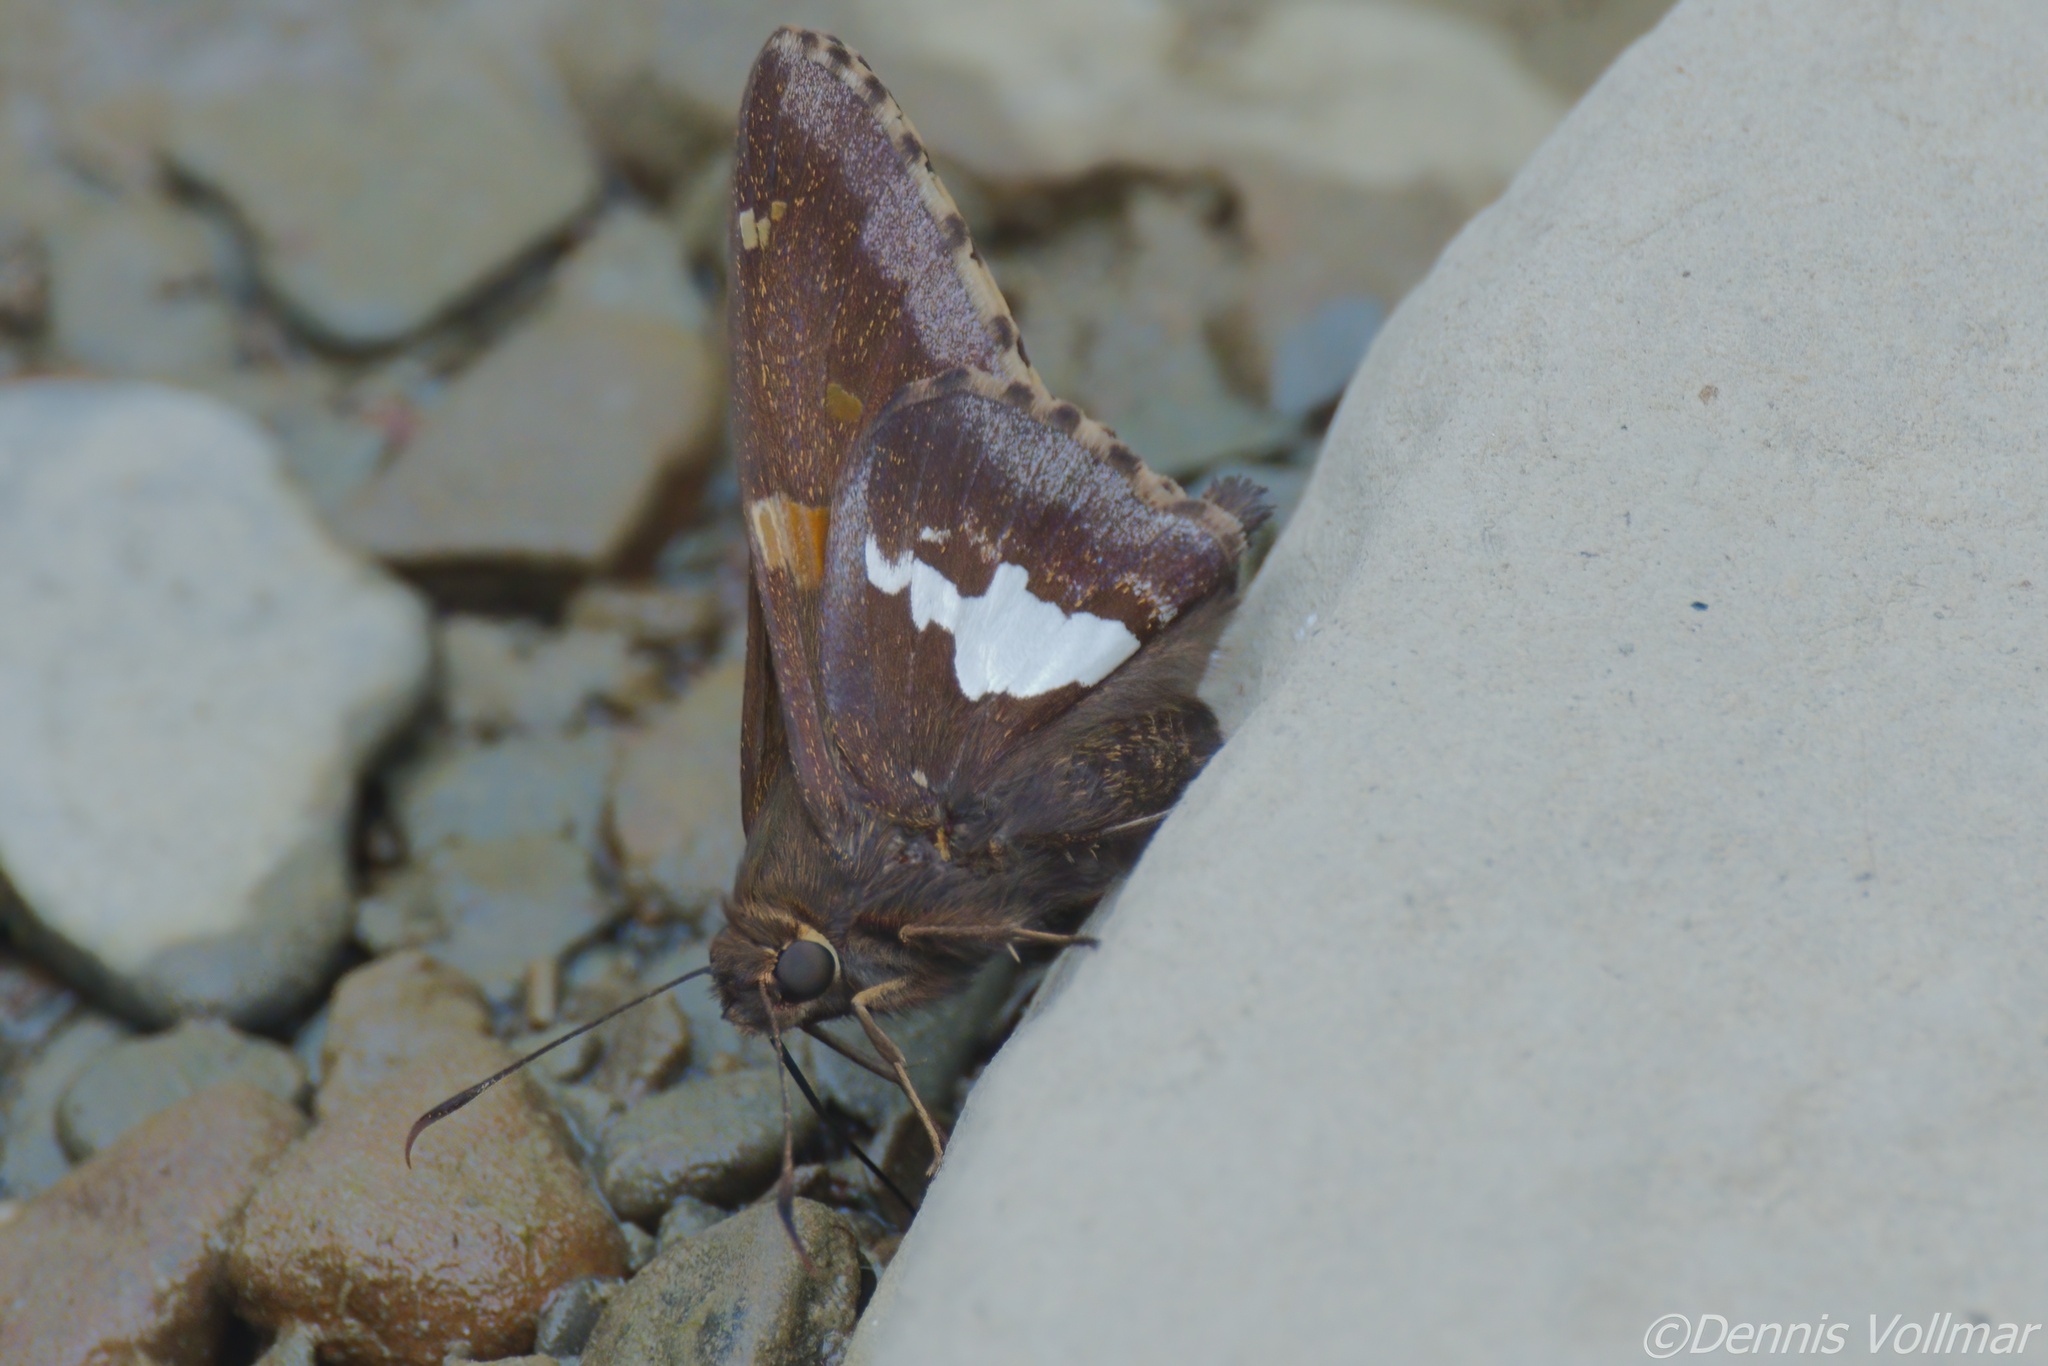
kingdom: Animalia
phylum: Arthropoda
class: Insecta
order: Lepidoptera
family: Hesperiidae
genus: Epargyreus
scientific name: Epargyreus clarus
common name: Silver-spotted skipper
